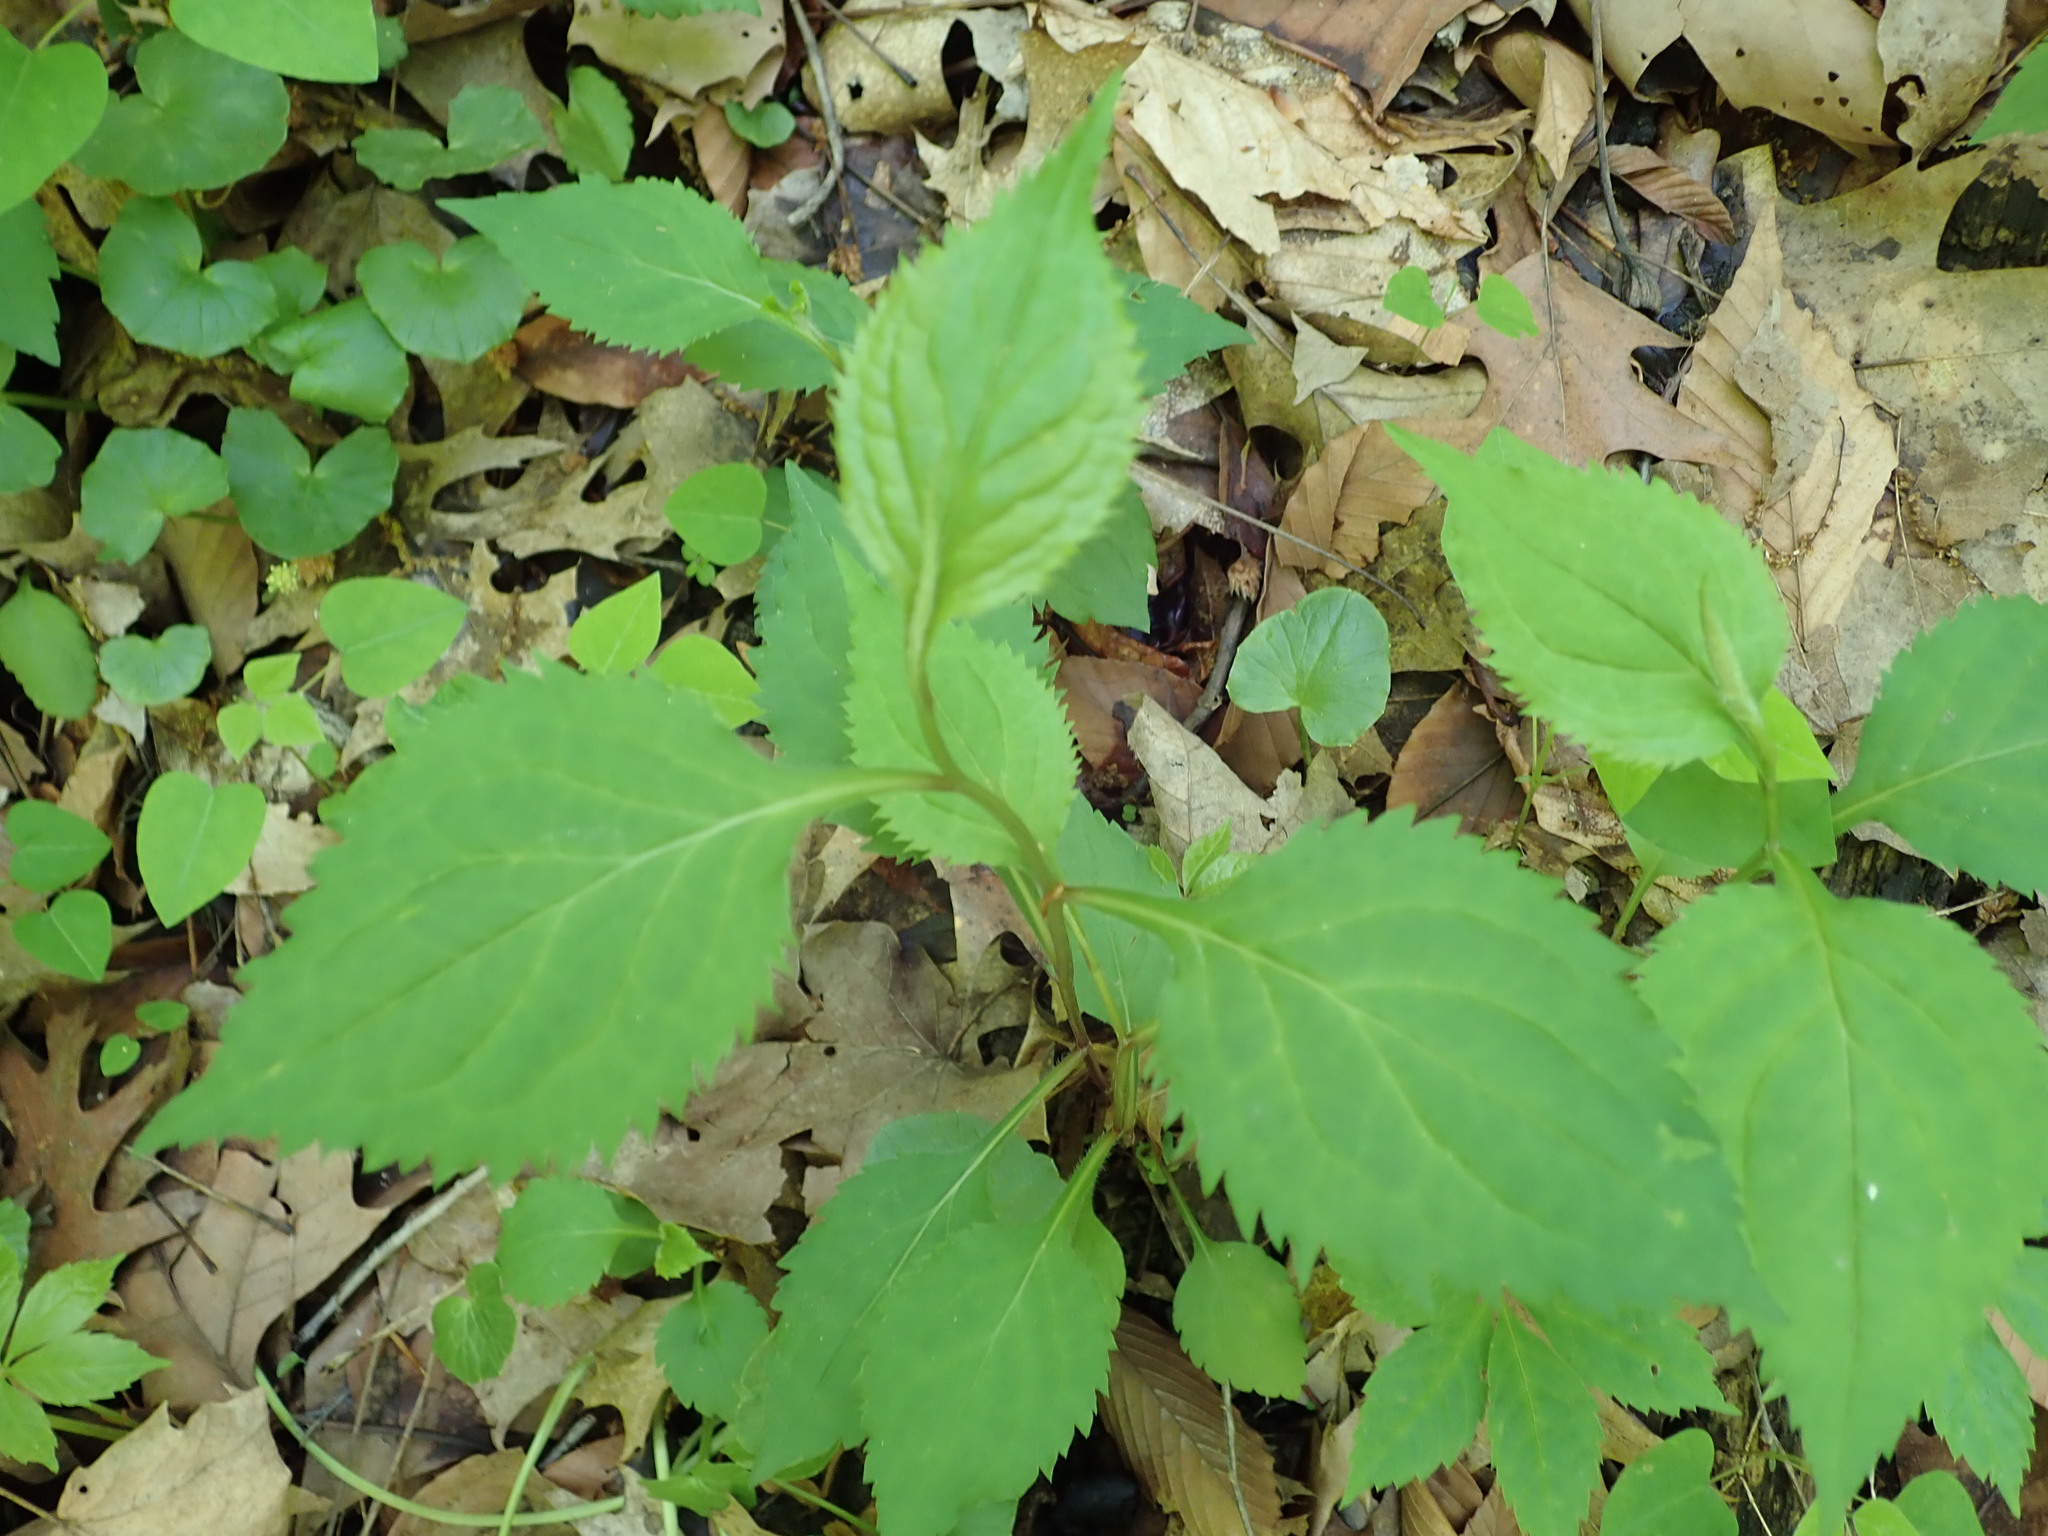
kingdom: Plantae
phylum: Tracheophyta
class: Magnoliopsida
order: Asterales
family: Asteraceae
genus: Solidago
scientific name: Solidago flexicaulis
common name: Zig-zag goldenrod
